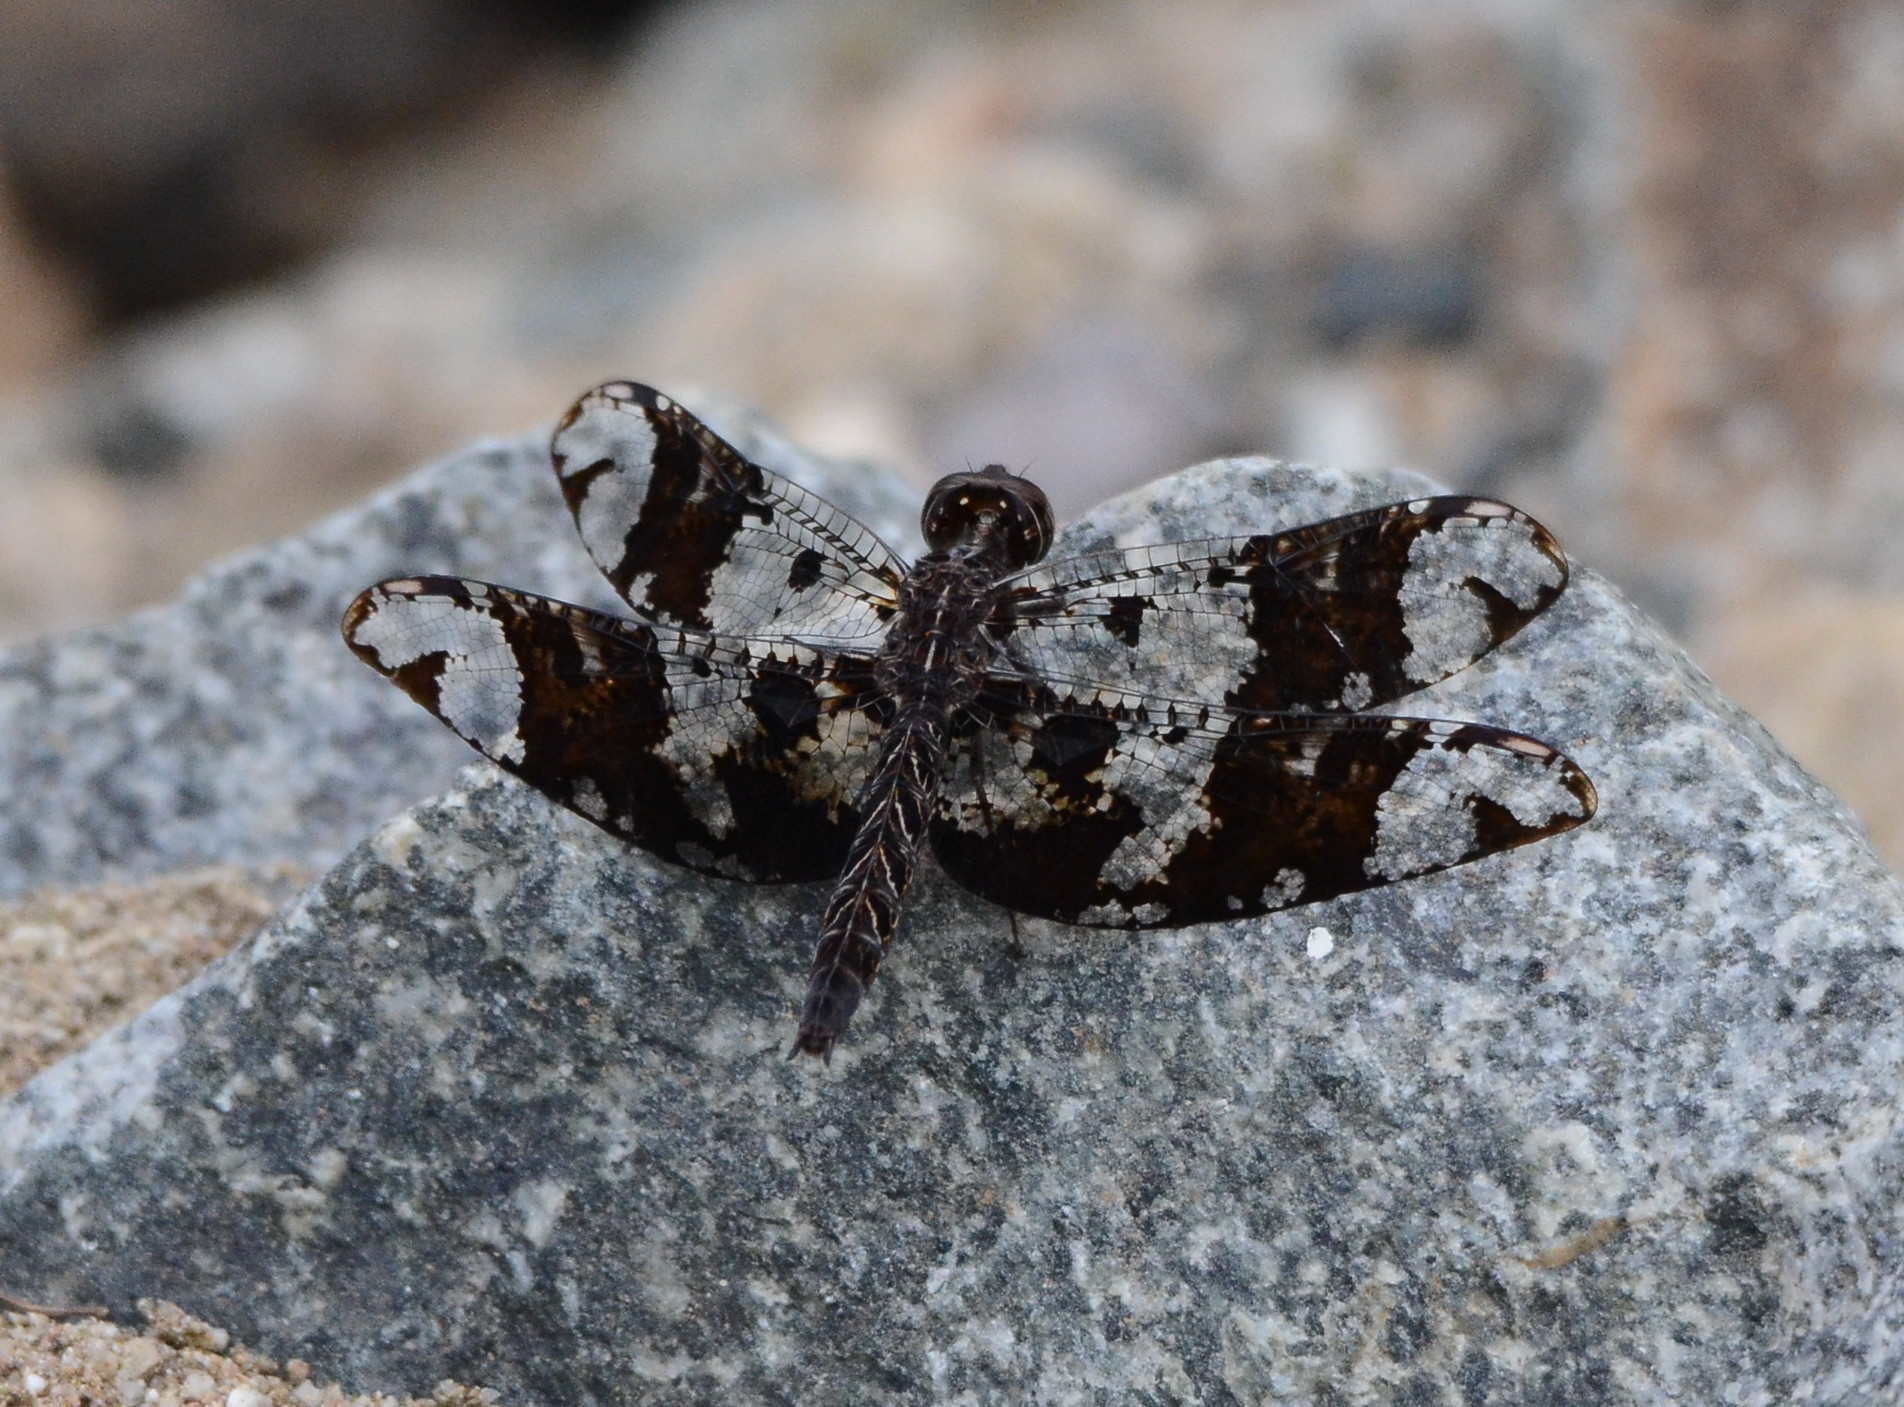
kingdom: Animalia
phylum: Arthropoda
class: Insecta
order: Odonata
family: Libellulidae
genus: Pseudoleon
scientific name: Pseudoleon superbus
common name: Filigree skimmer
